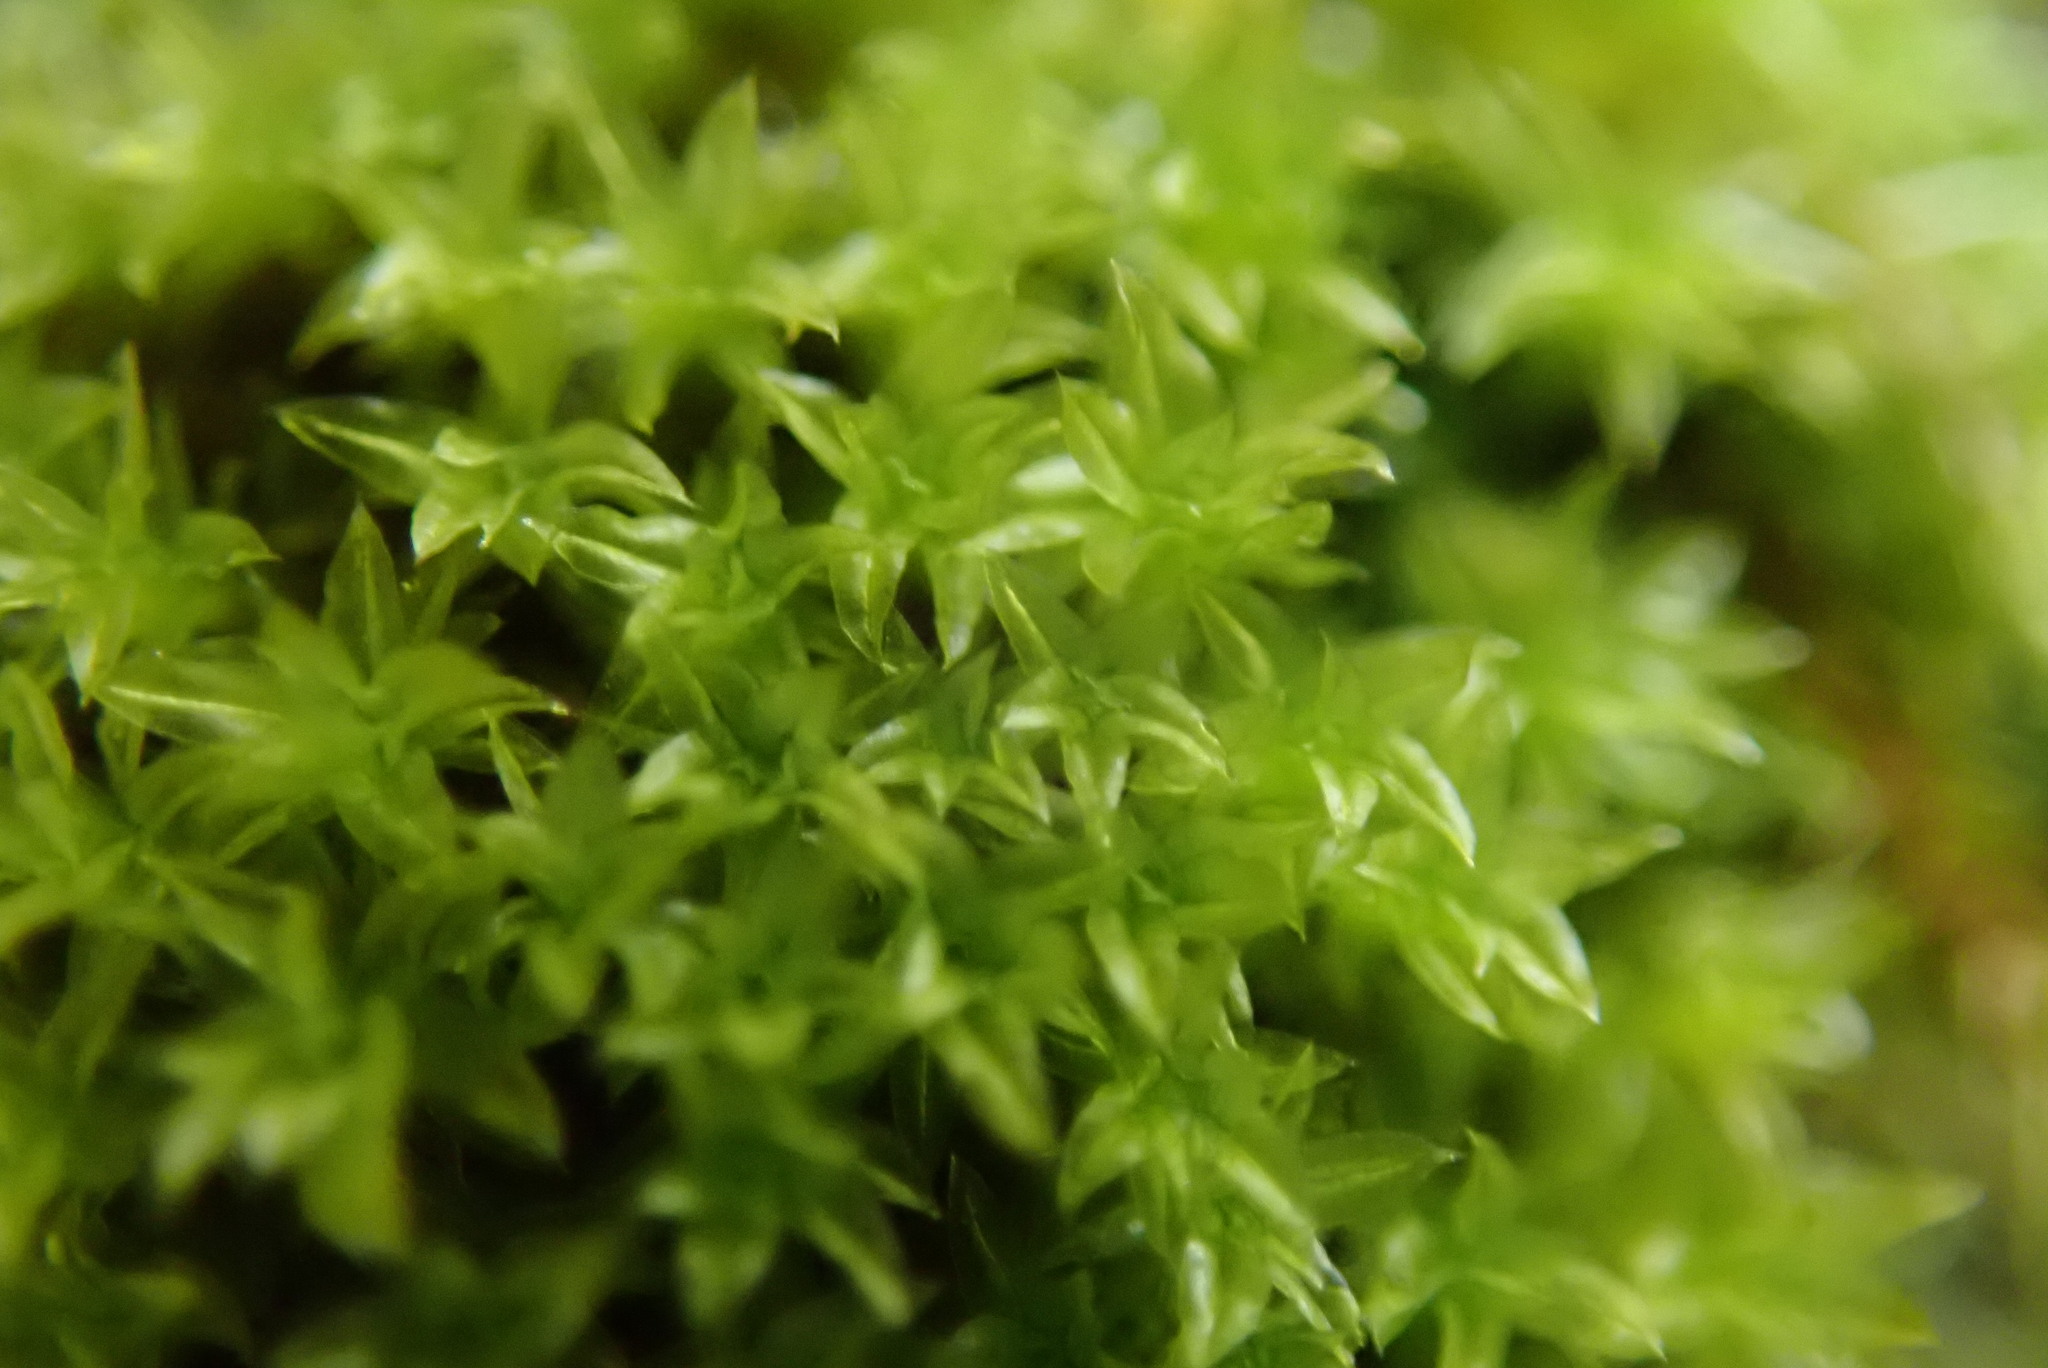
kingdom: Plantae
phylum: Bryophyta
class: Bryopsida
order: Orthotrichales
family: Orthotrichaceae
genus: Zygodon
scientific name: Zygodon
